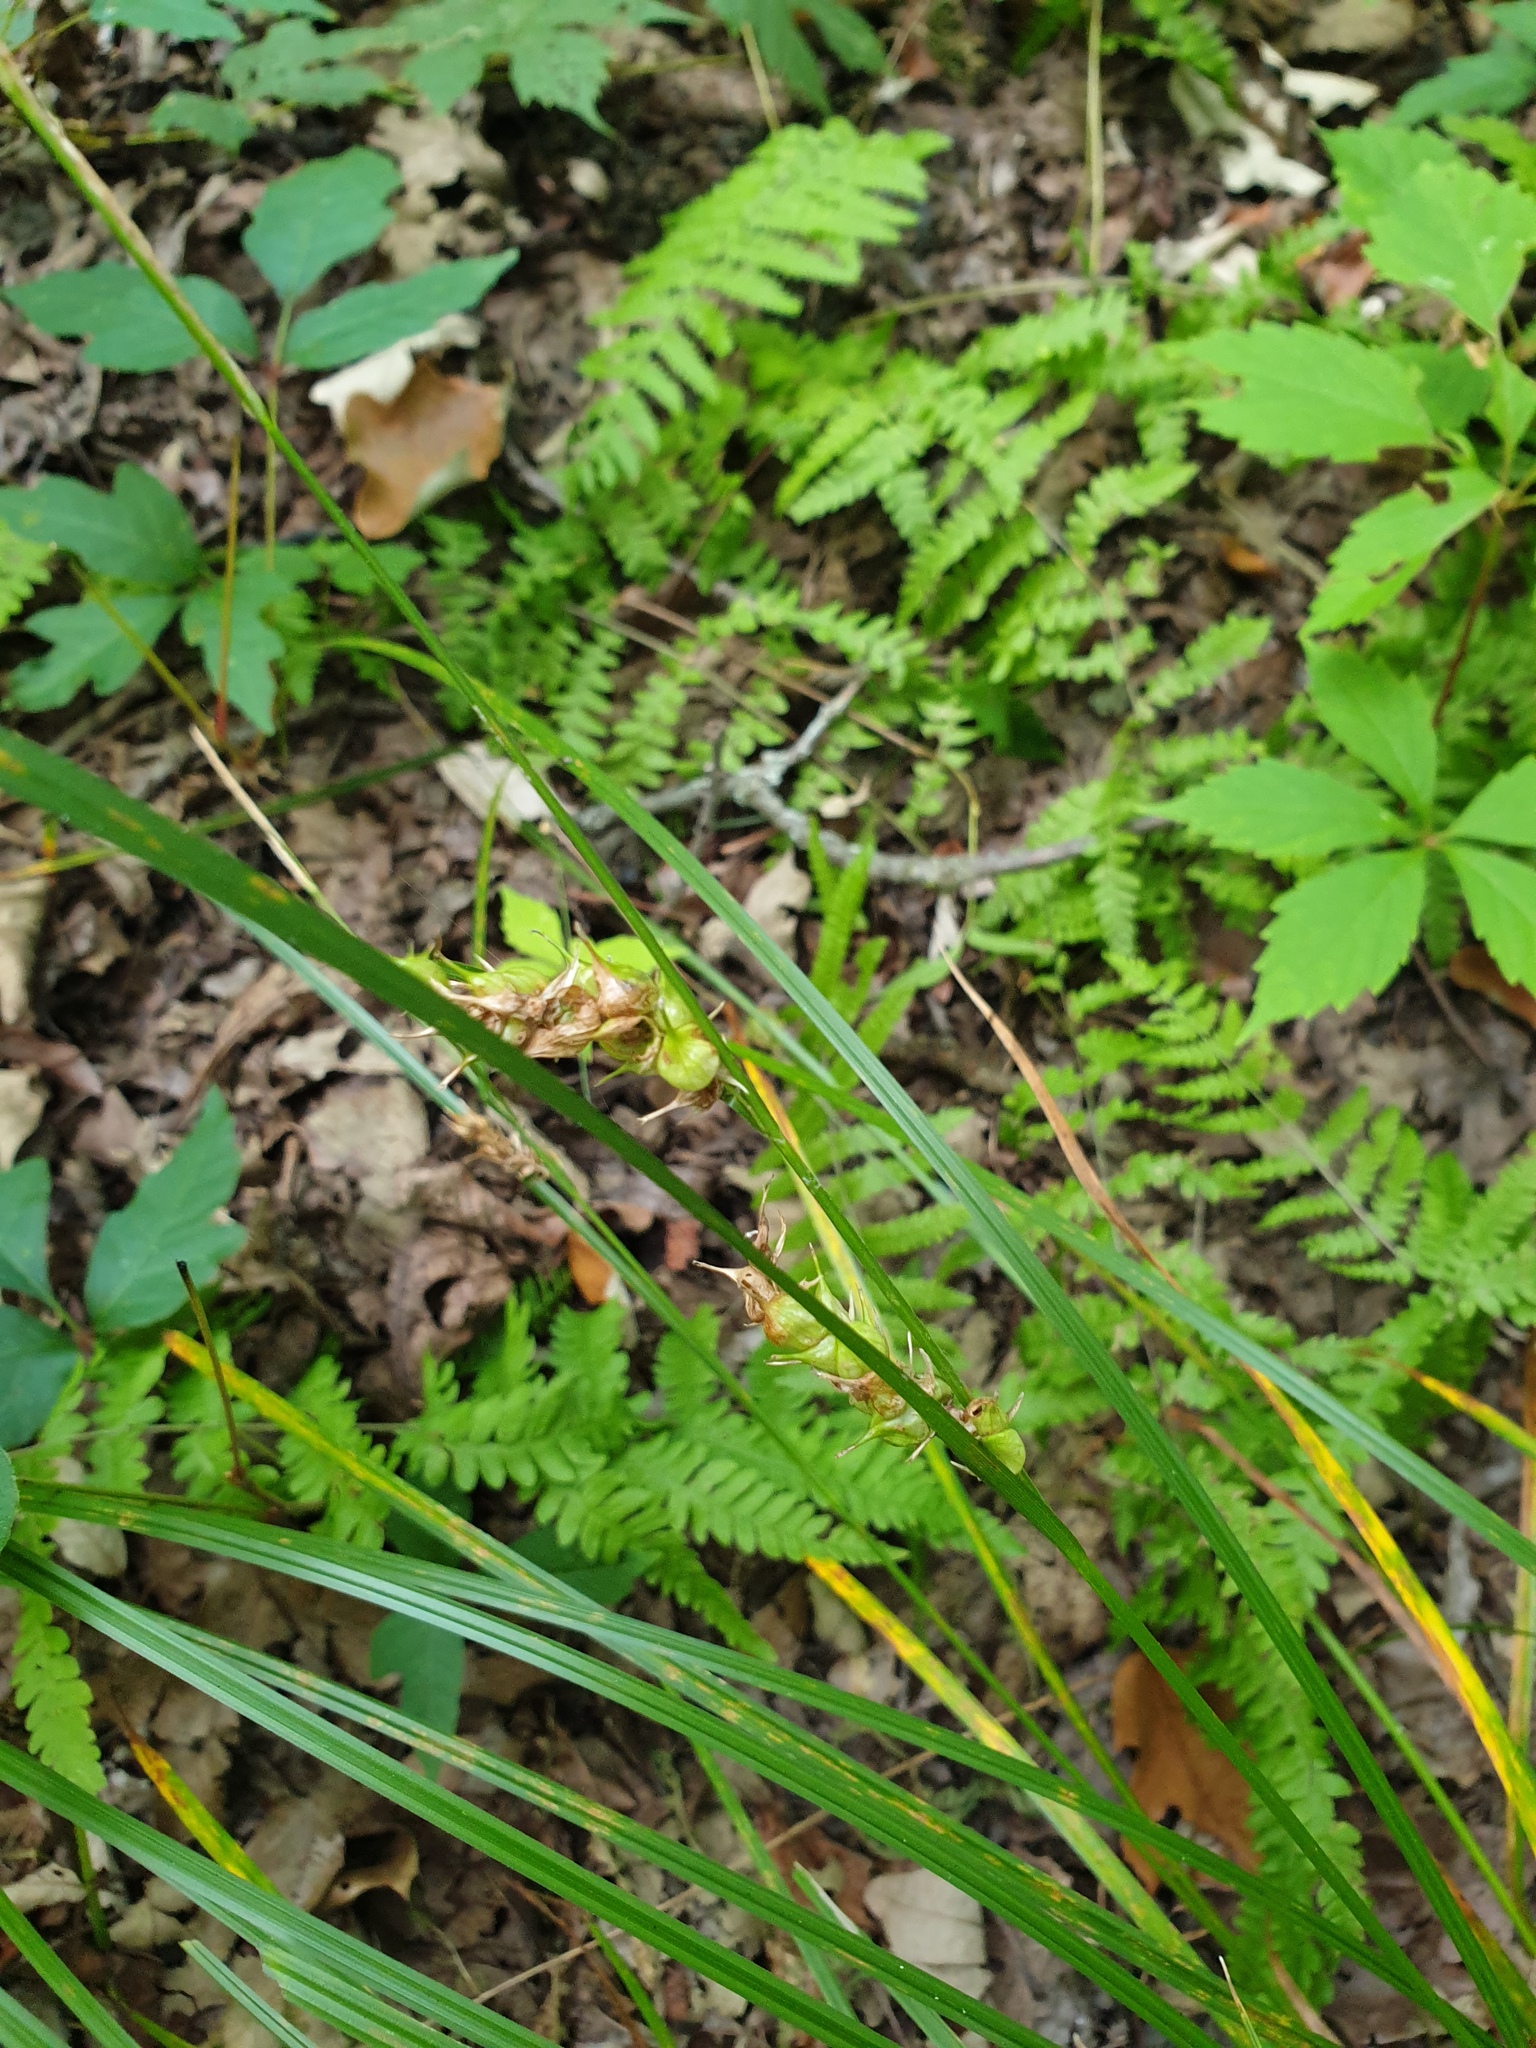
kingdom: Plantae
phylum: Tracheophyta
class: Liliopsida
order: Poales
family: Cyperaceae
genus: Carex
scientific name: Carex tuckermanii
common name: Tuckerman's sedge
